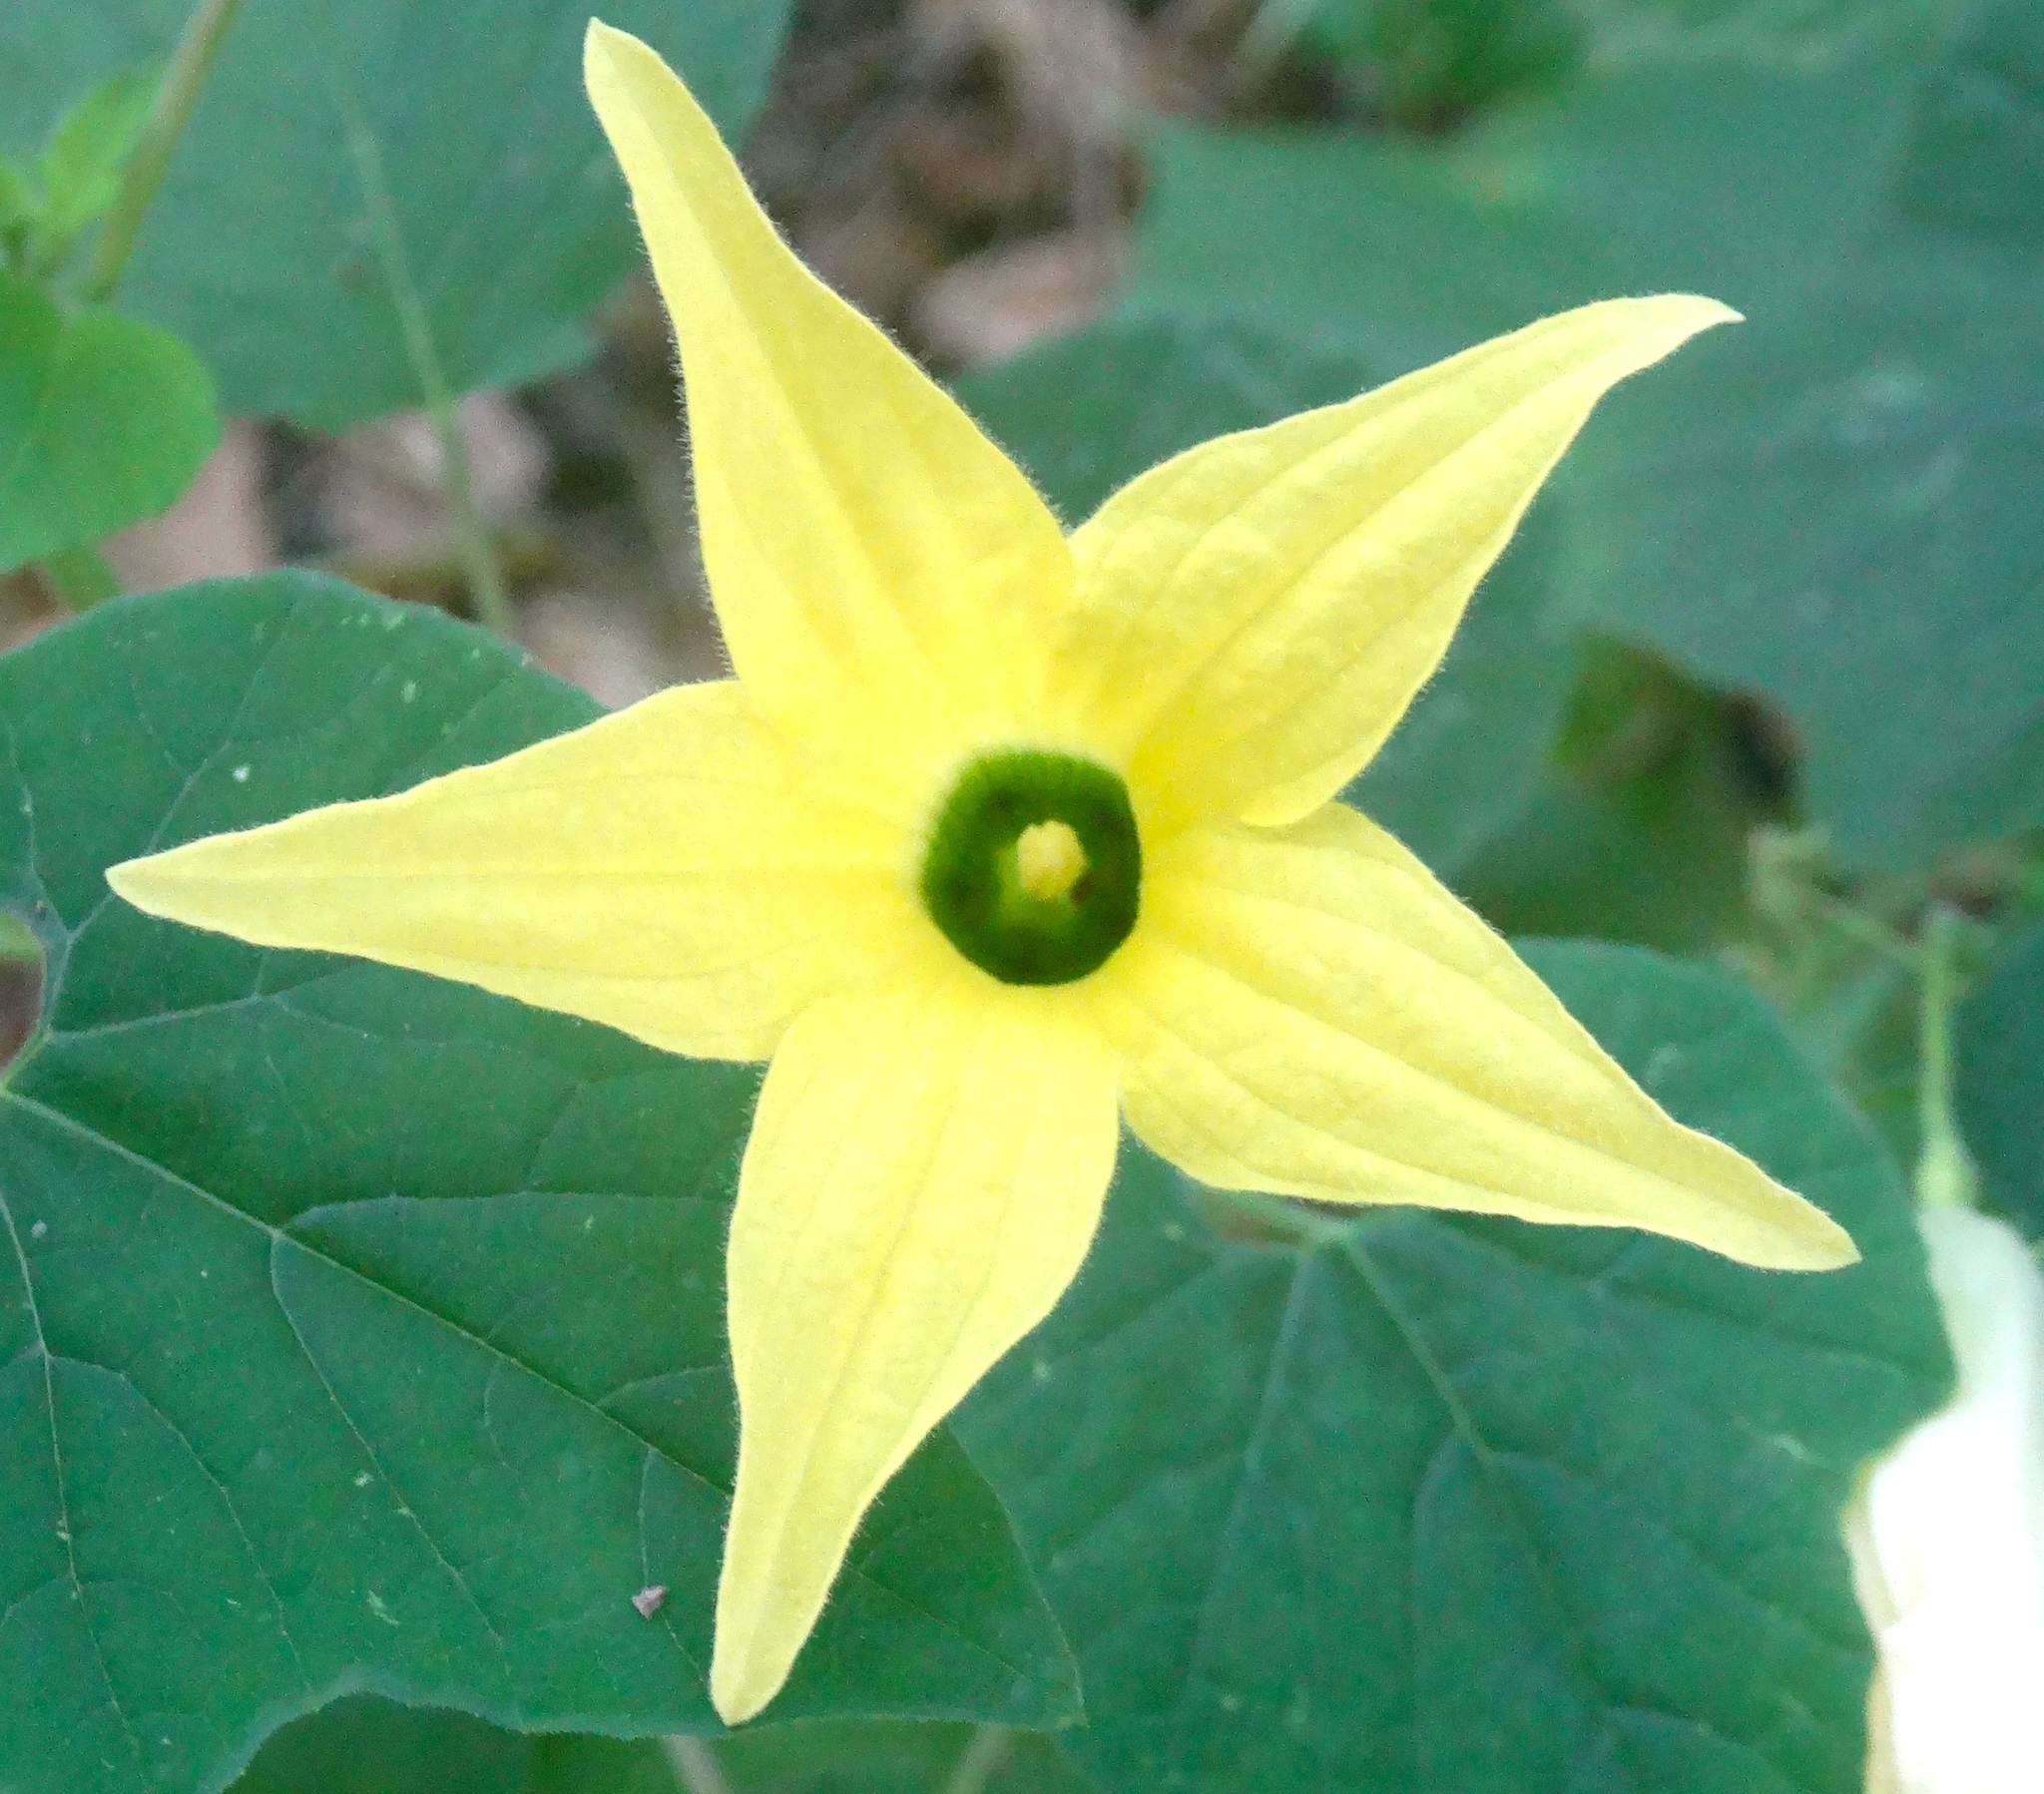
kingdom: Plantae
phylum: Tracheophyta
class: Magnoliopsida
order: Cucurbitales
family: Cucurbitaceae
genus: Schizocarpum
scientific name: Schizocarpum
